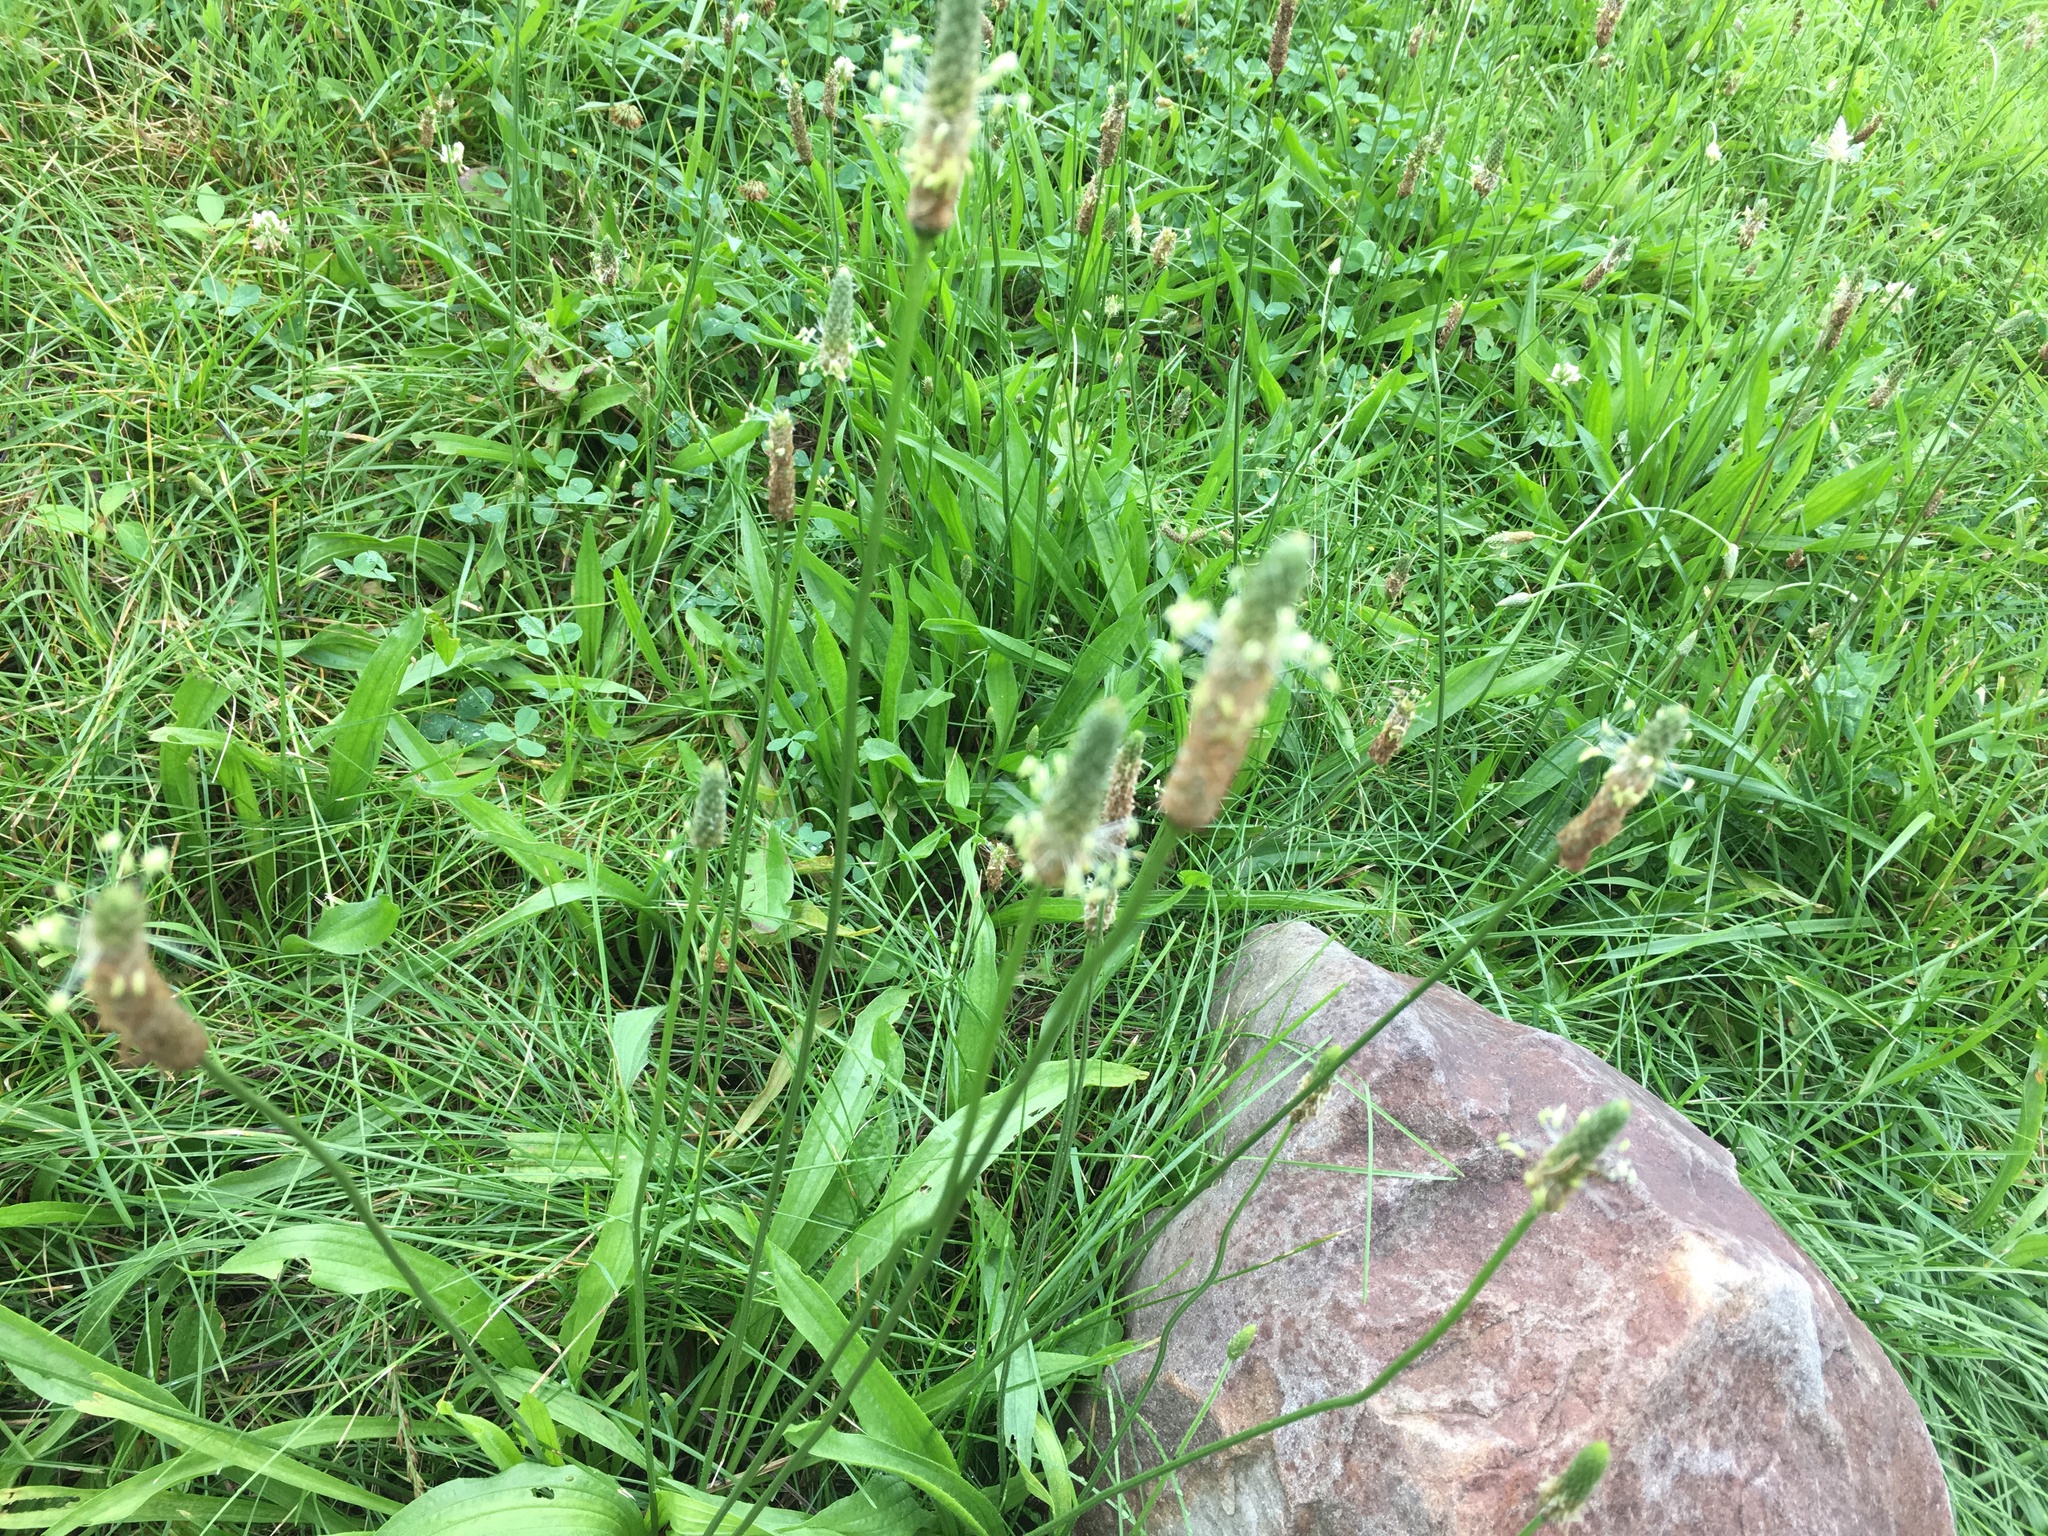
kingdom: Plantae
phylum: Tracheophyta
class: Magnoliopsida
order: Lamiales
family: Plantaginaceae
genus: Plantago
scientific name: Plantago lanceolata
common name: Ribwort plantain
